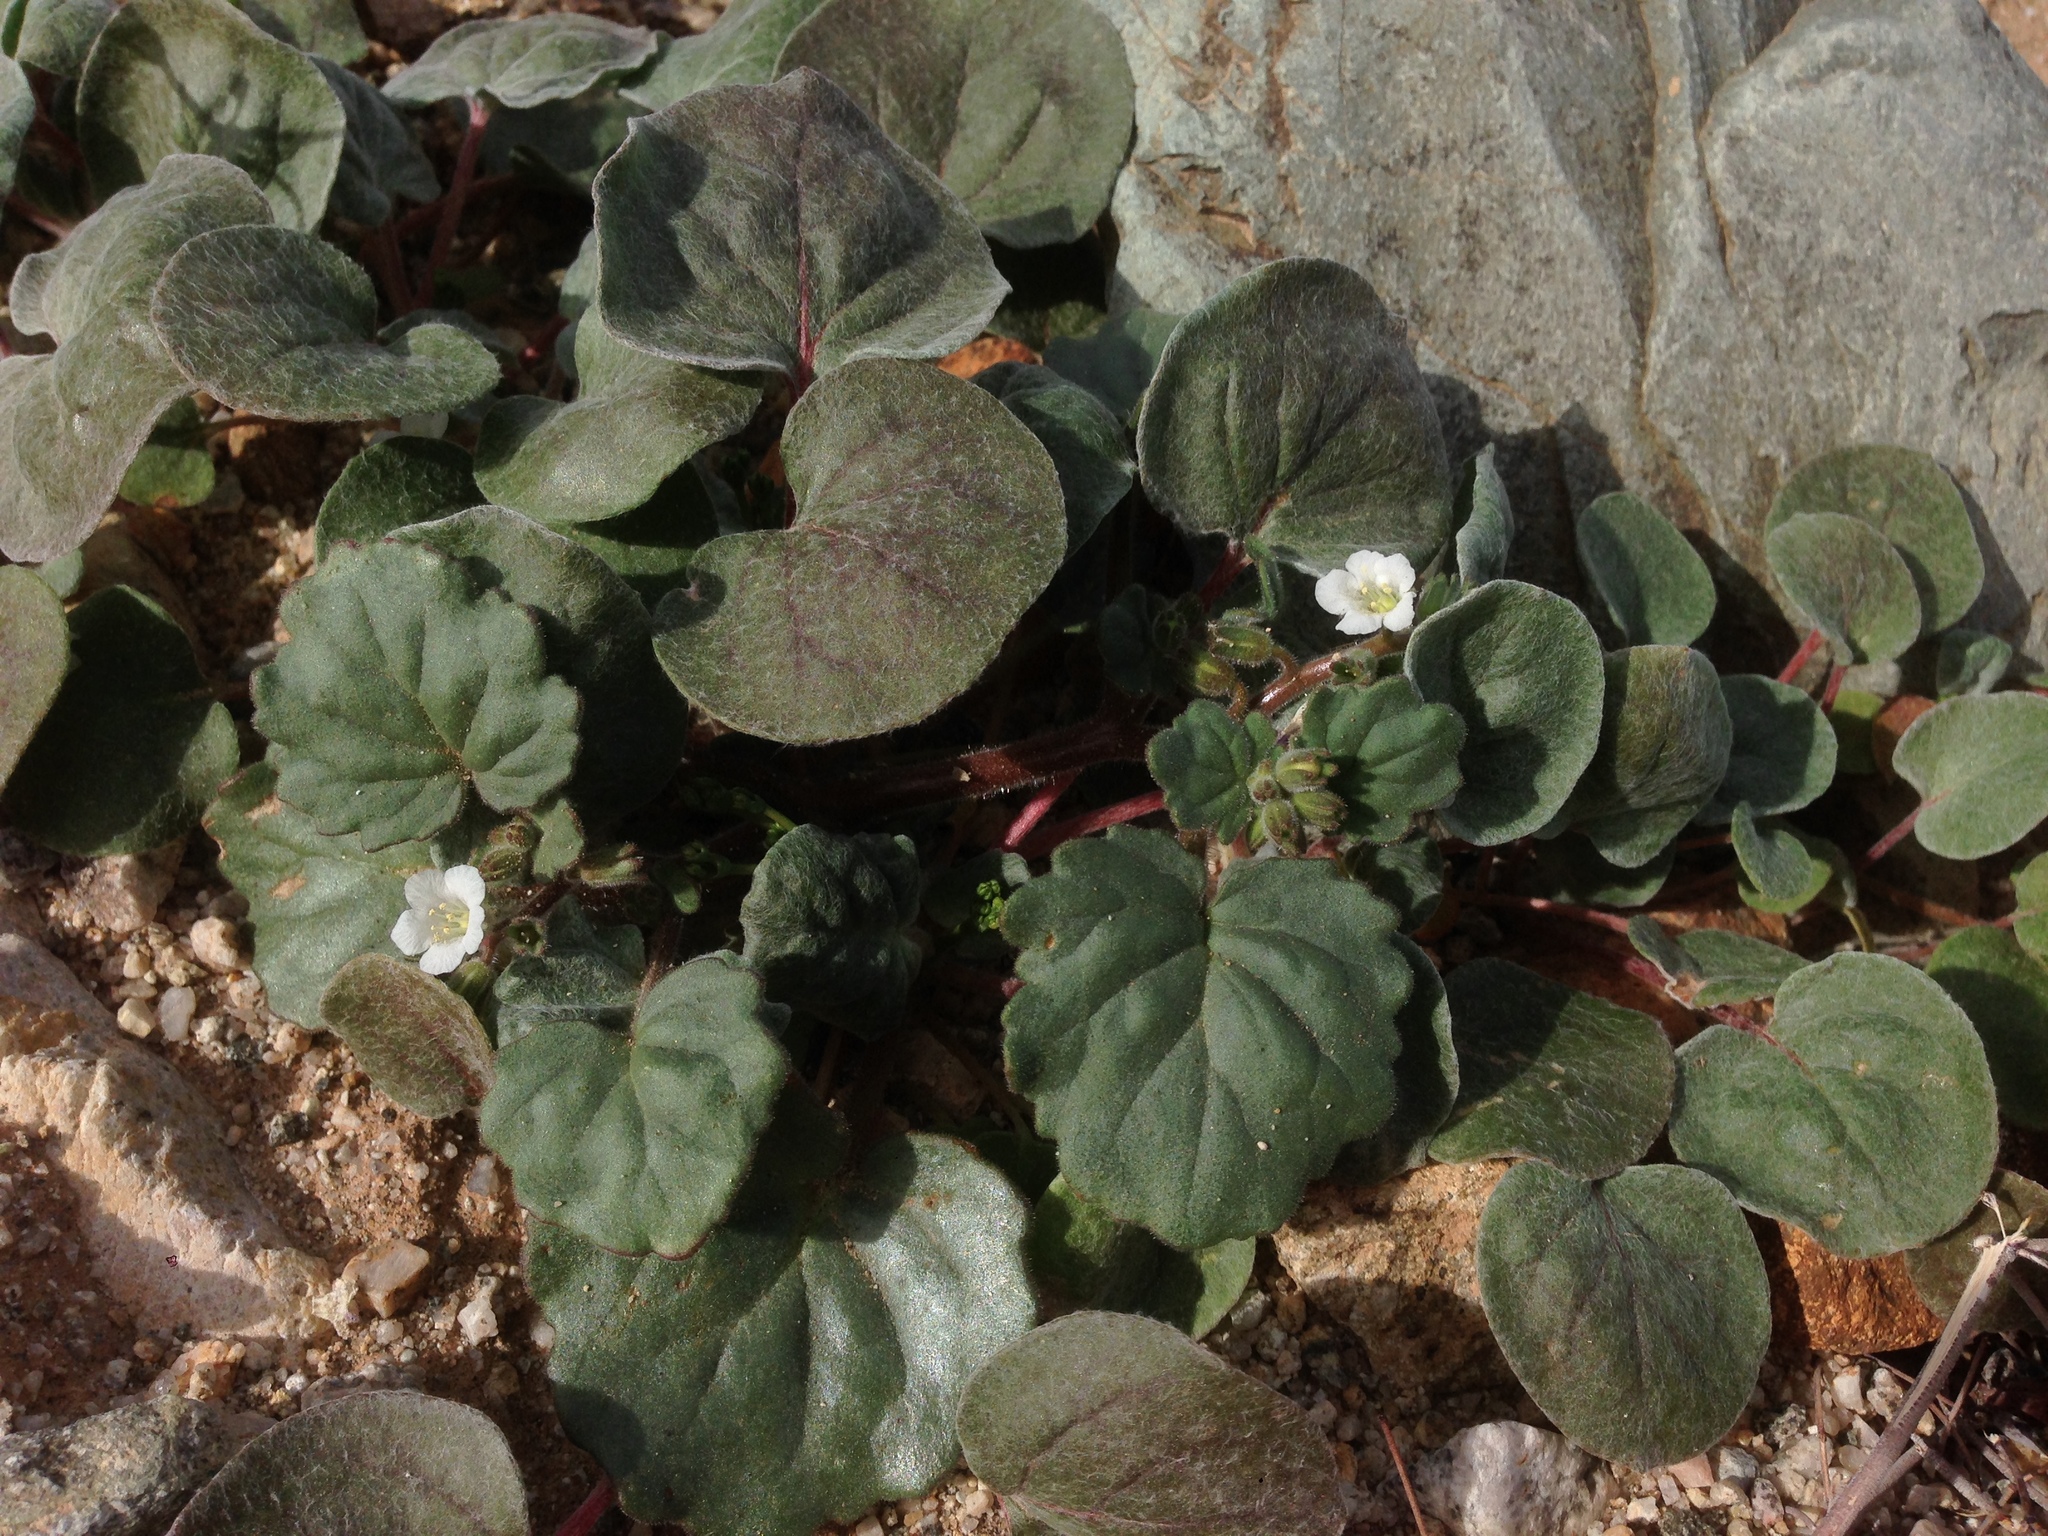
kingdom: Plantae
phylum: Tracheophyta
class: Magnoliopsida
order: Boraginales
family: Hydrophyllaceae
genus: Phacelia
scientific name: Phacelia neglecta
